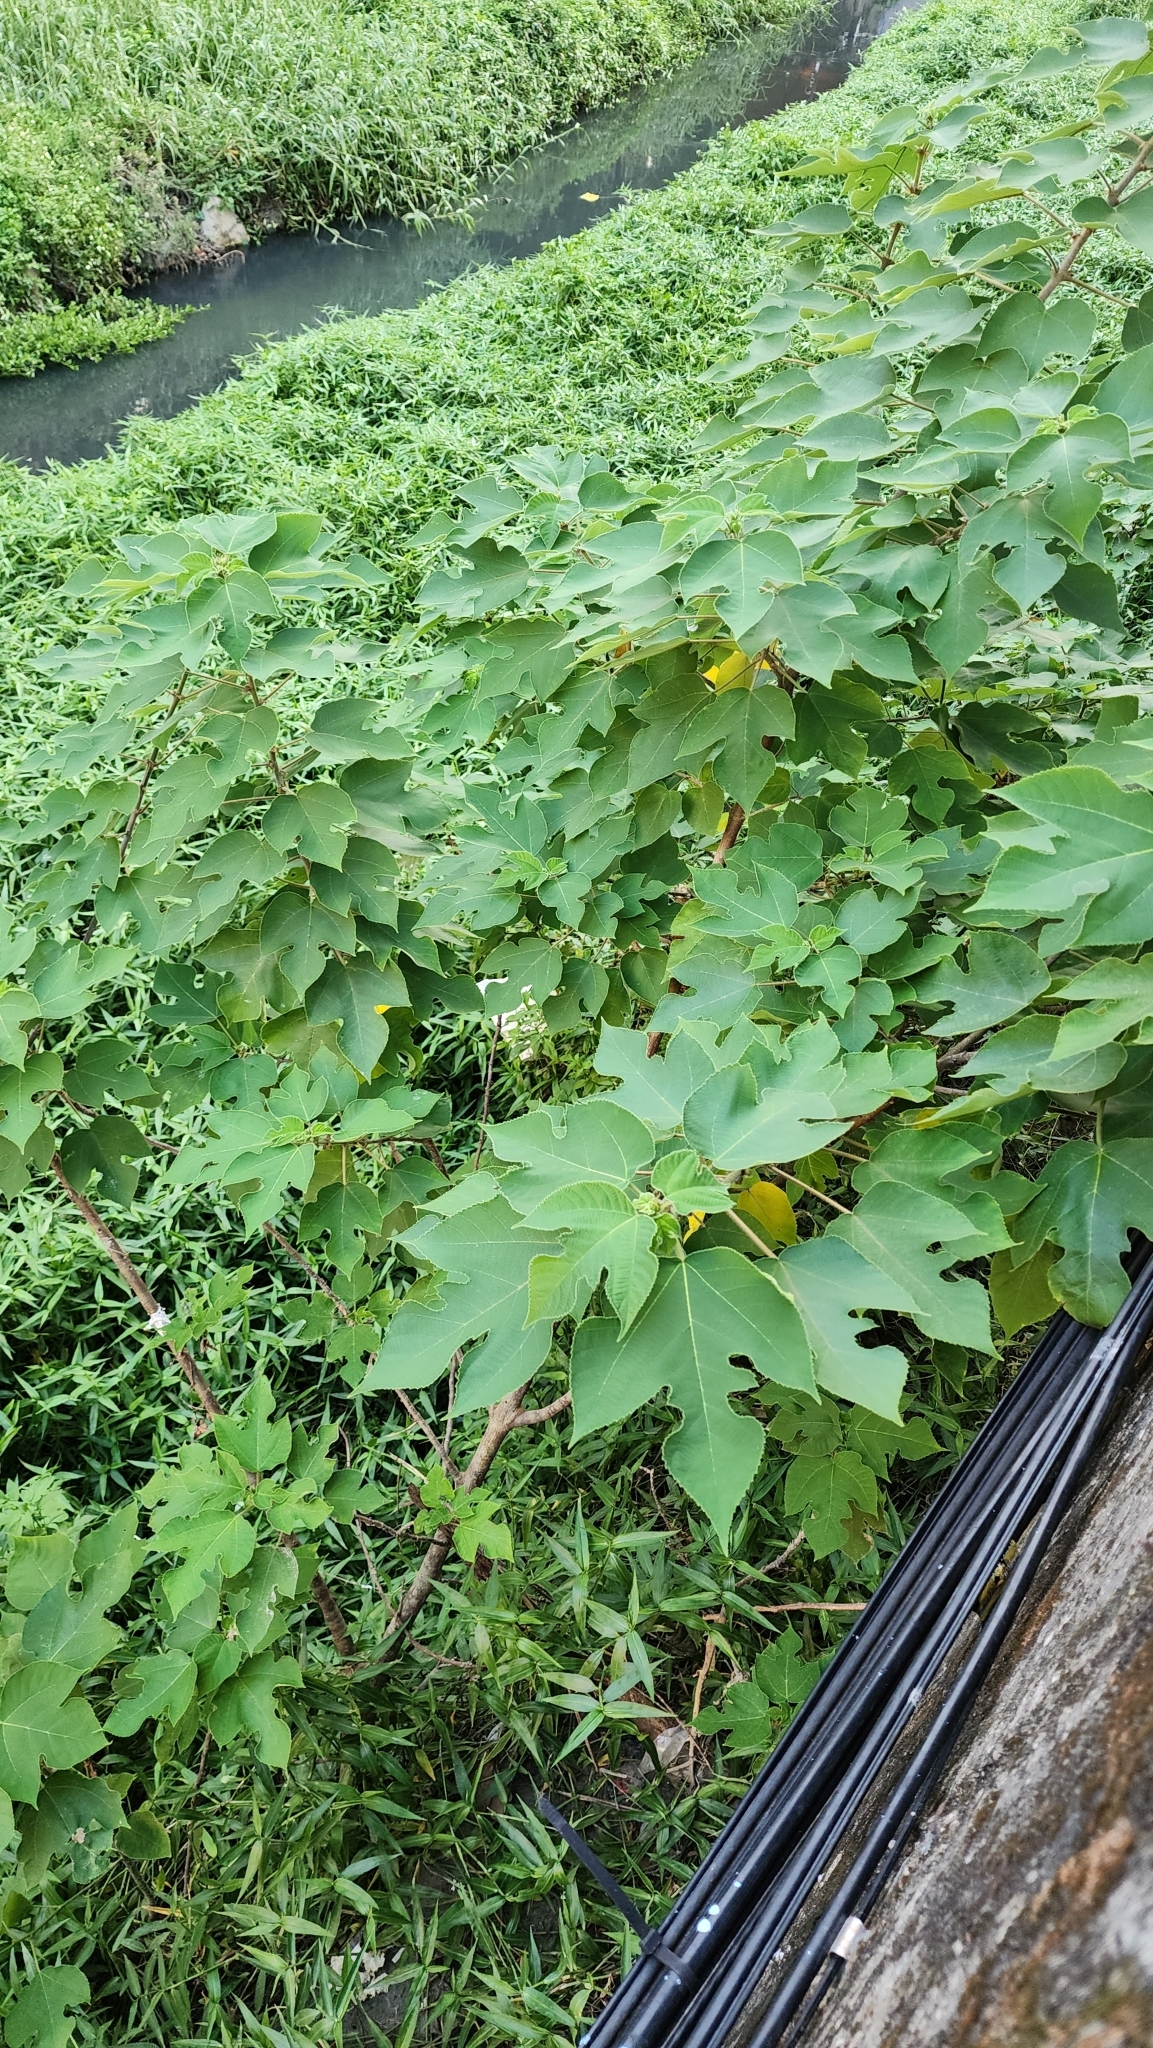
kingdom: Plantae
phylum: Tracheophyta
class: Magnoliopsida
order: Rosales
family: Moraceae
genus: Broussonetia
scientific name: Broussonetia papyrifera
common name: Paper mulberry
